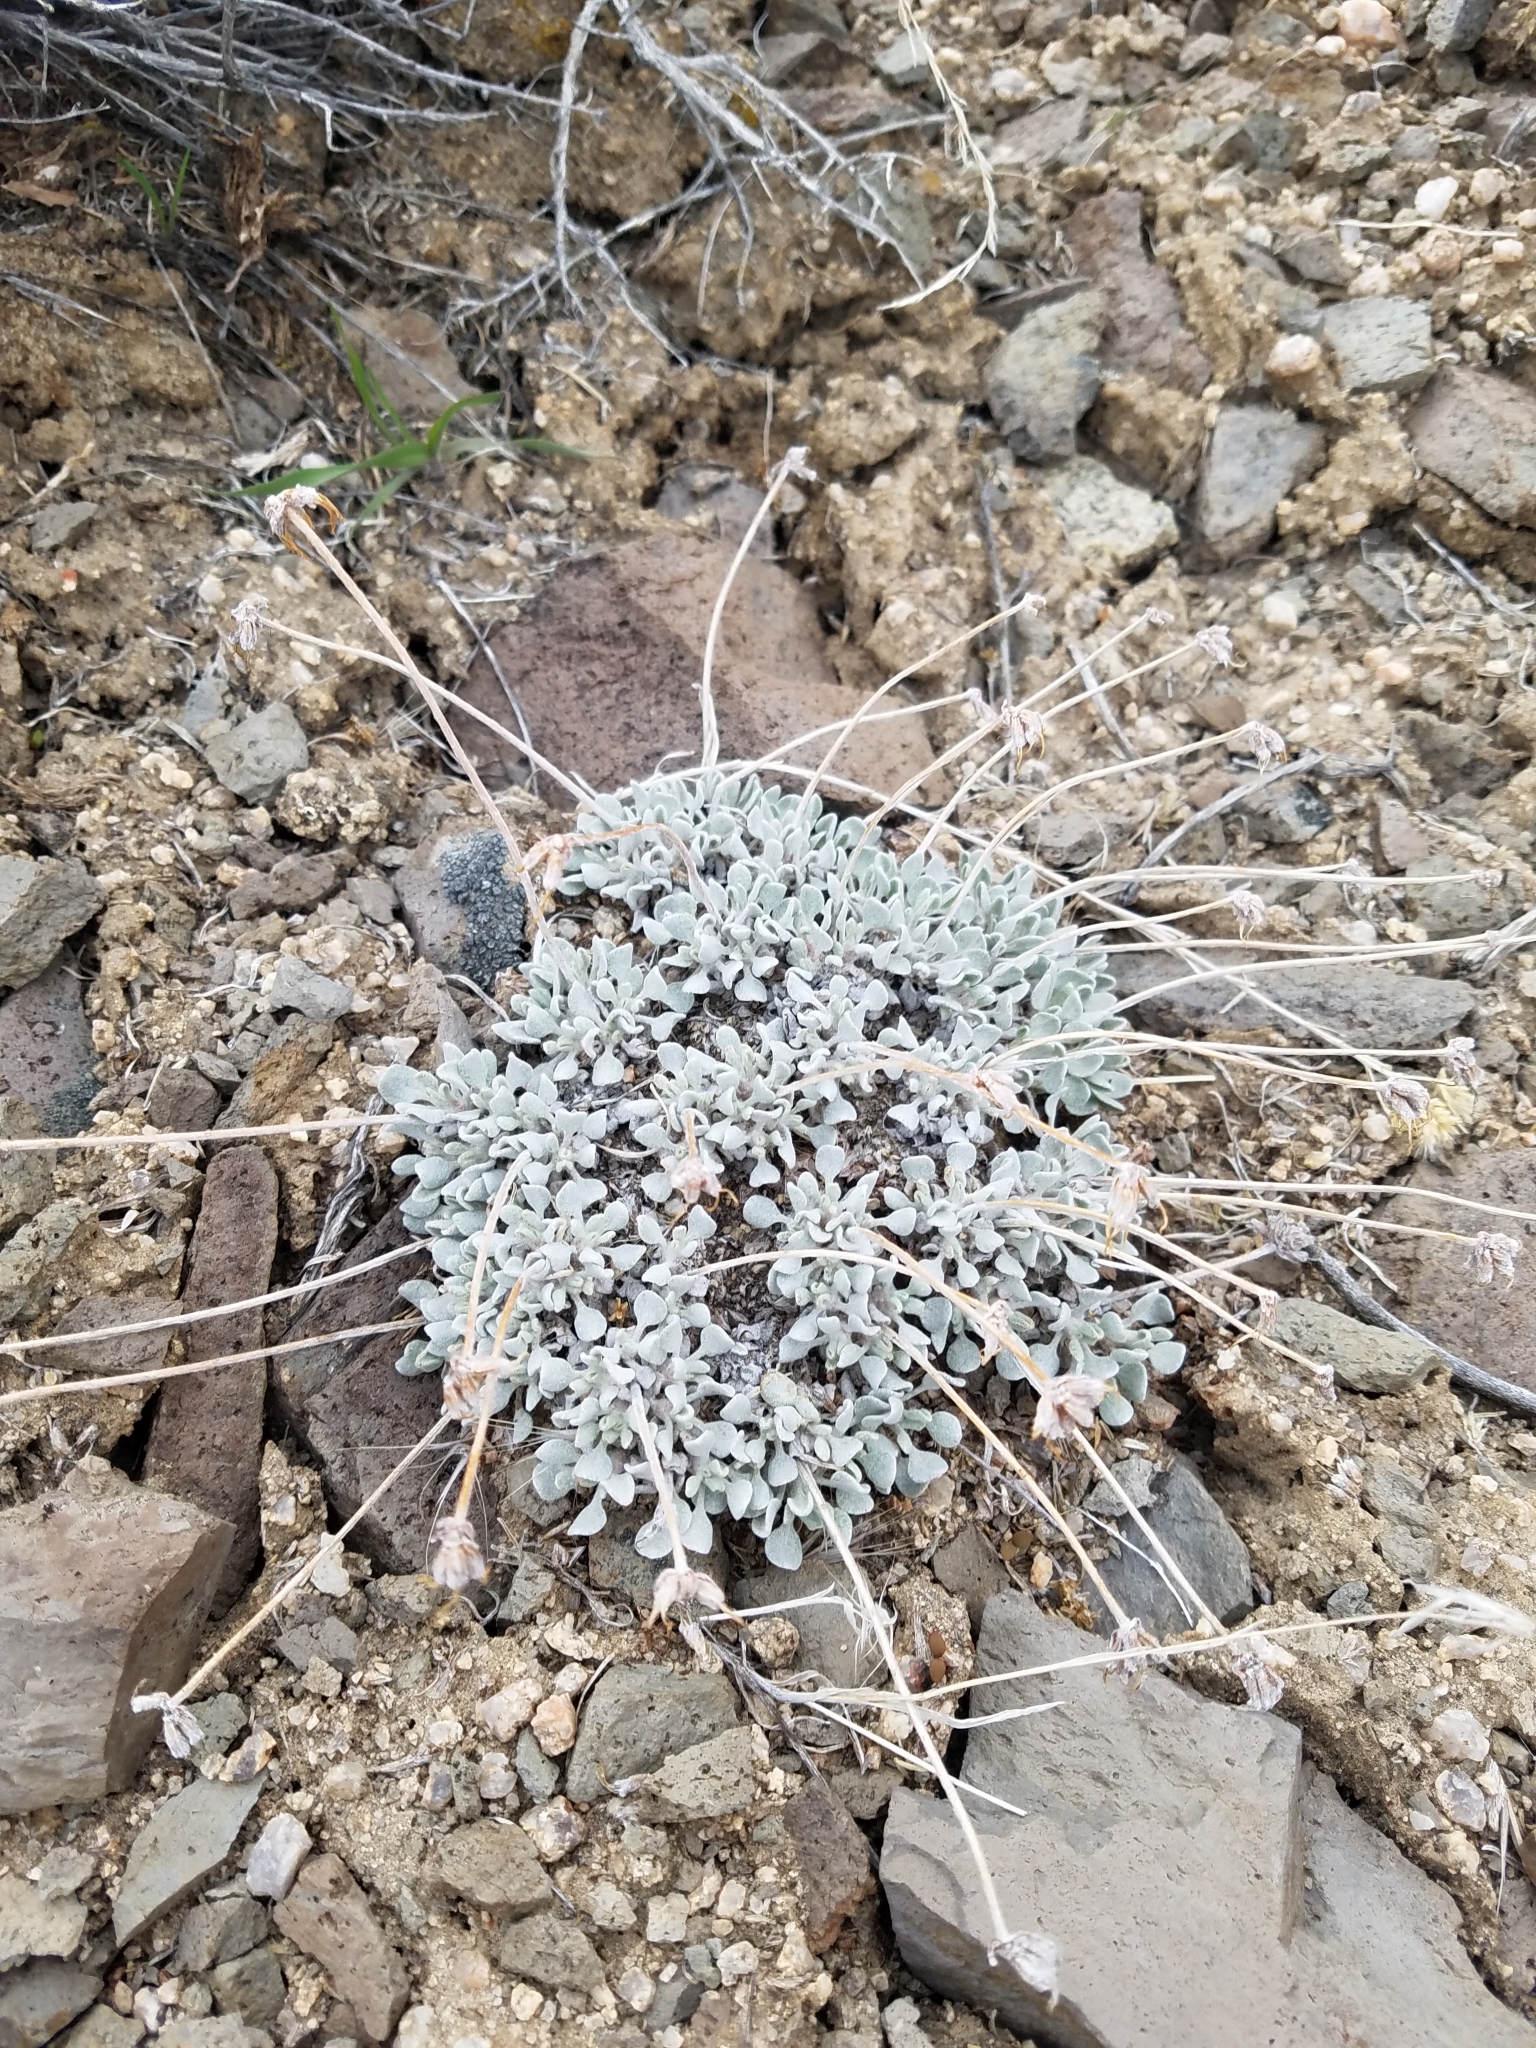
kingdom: Plantae
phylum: Tracheophyta
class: Magnoliopsida
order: Caryophyllales
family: Polygonaceae
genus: Eriogonum
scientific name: Eriogonum ovalifolium
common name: Cushion buckwheat
